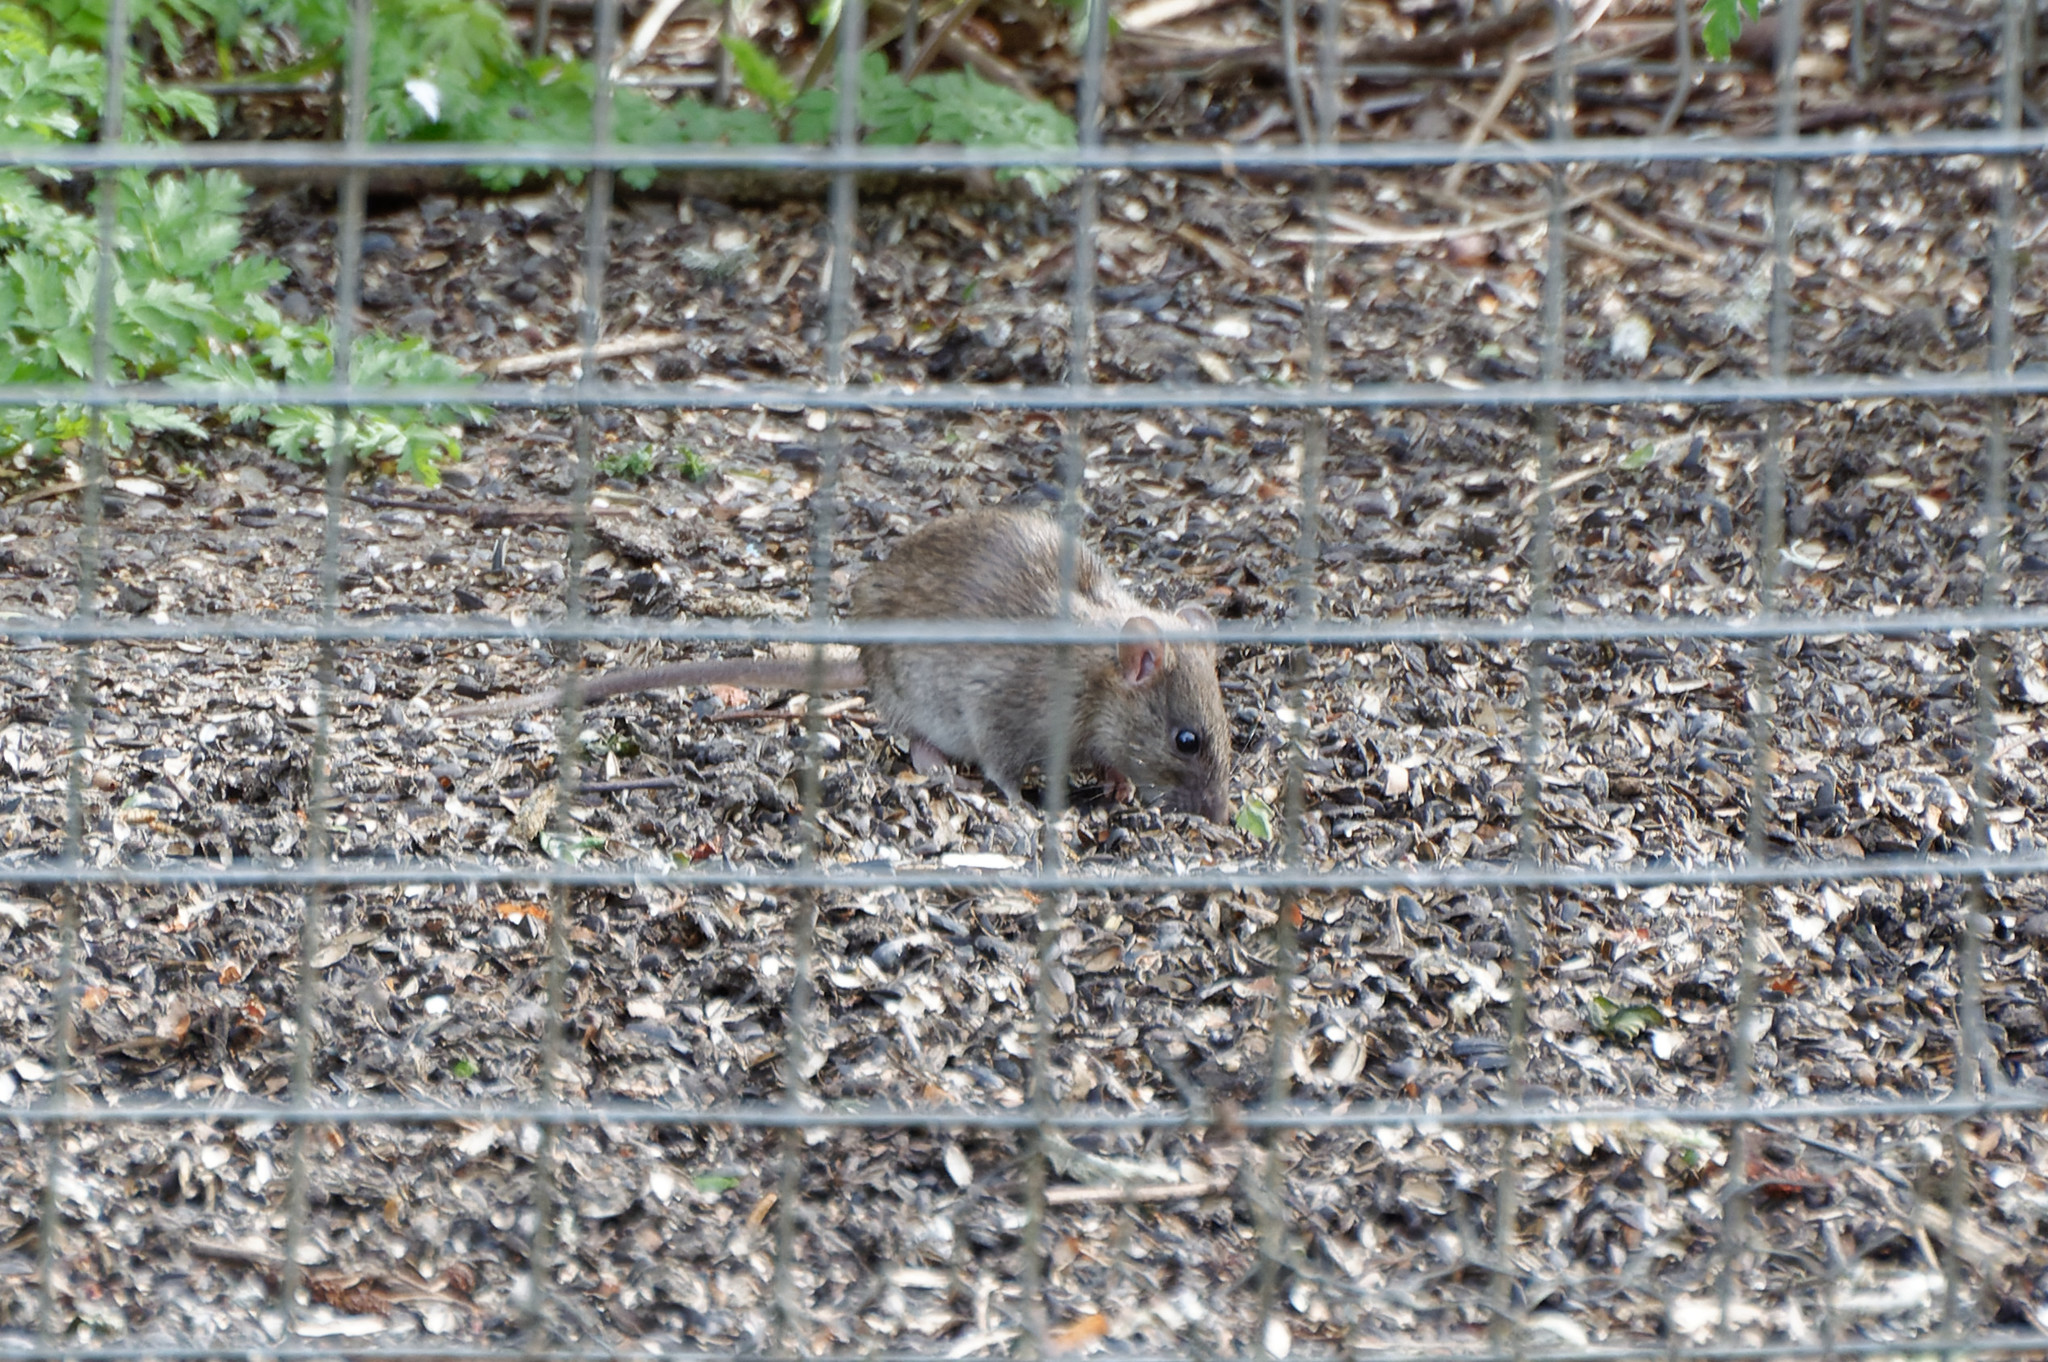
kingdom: Animalia
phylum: Chordata
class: Mammalia
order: Rodentia
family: Muridae
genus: Rattus
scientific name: Rattus norvegicus
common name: Brown rat
